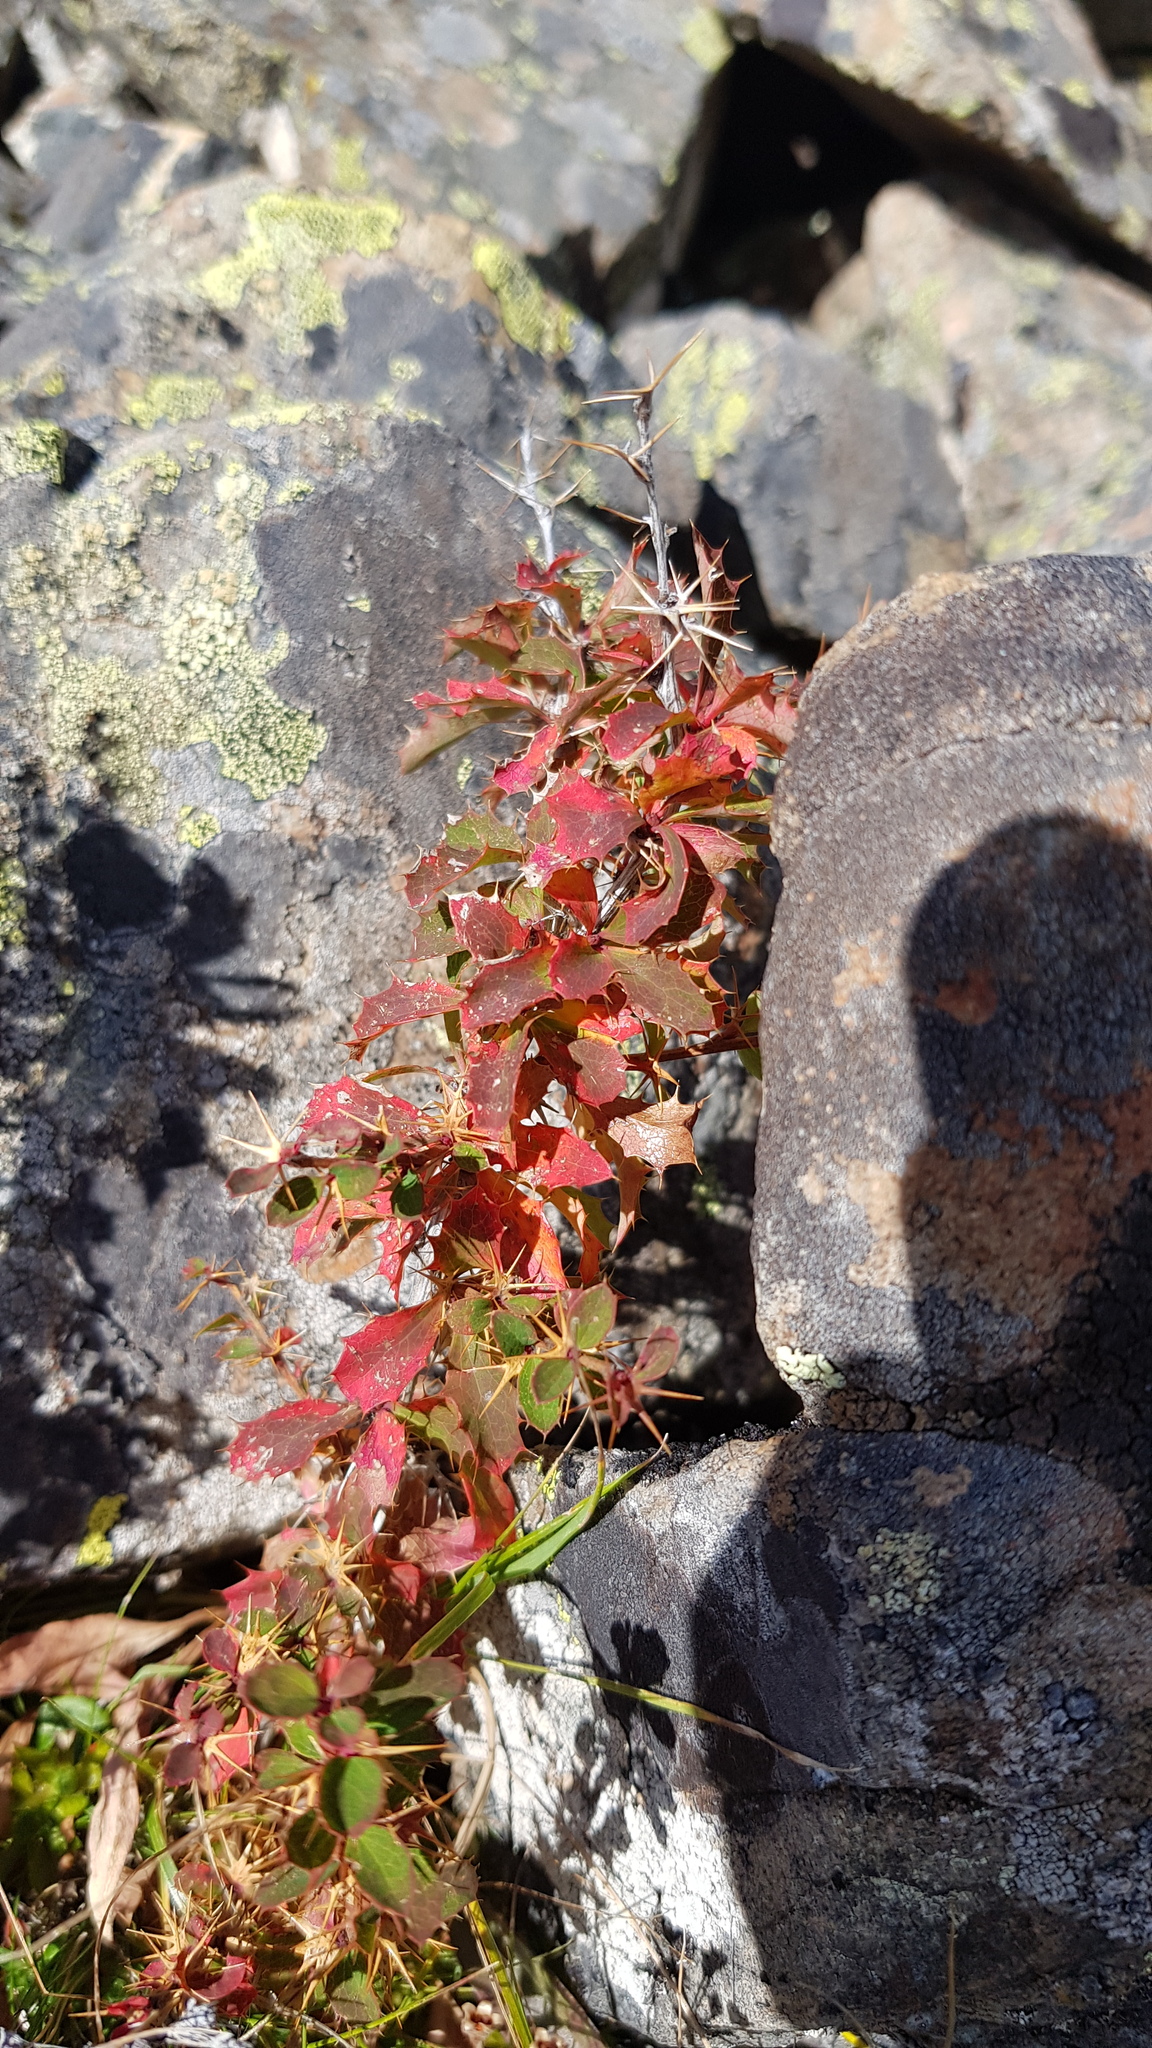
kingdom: Plantae
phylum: Tracheophyta
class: Magnoliopsida
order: Ranunculales
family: Berberidaceae
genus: Berberis
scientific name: Berberis sibirica
